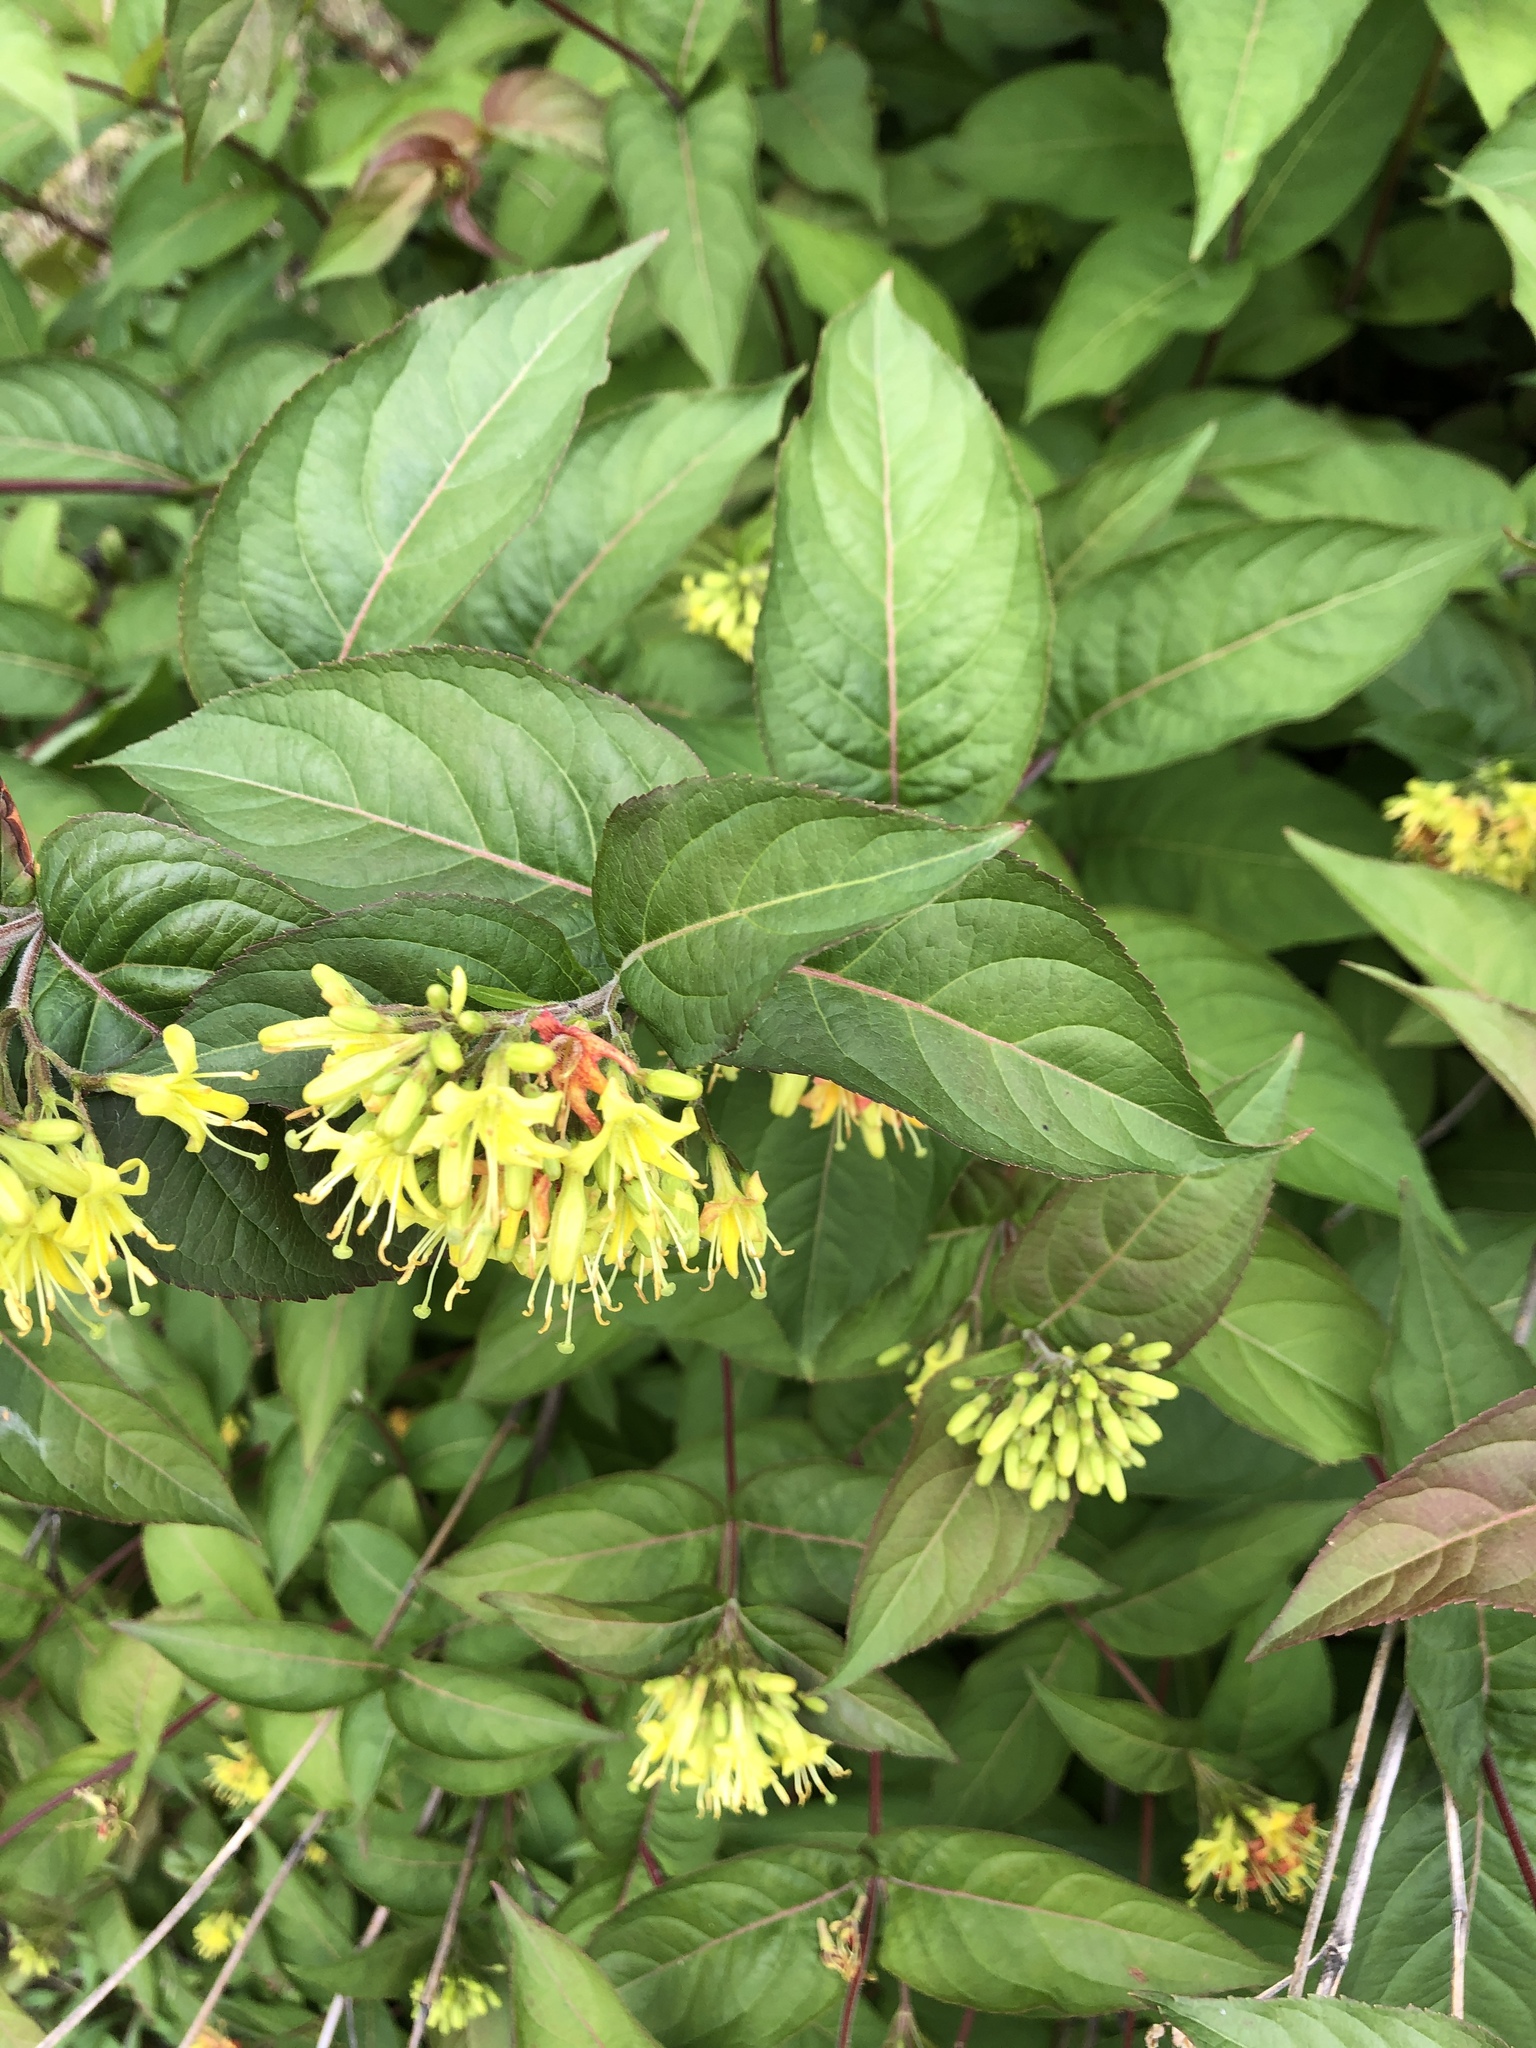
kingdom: Plantae
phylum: Tracheophyta
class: Magnoliopsida
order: Dipsacales
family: Caprifoliaceae
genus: Diervilla
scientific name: Diervilla lonicera
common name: Bush-honeysuckle
